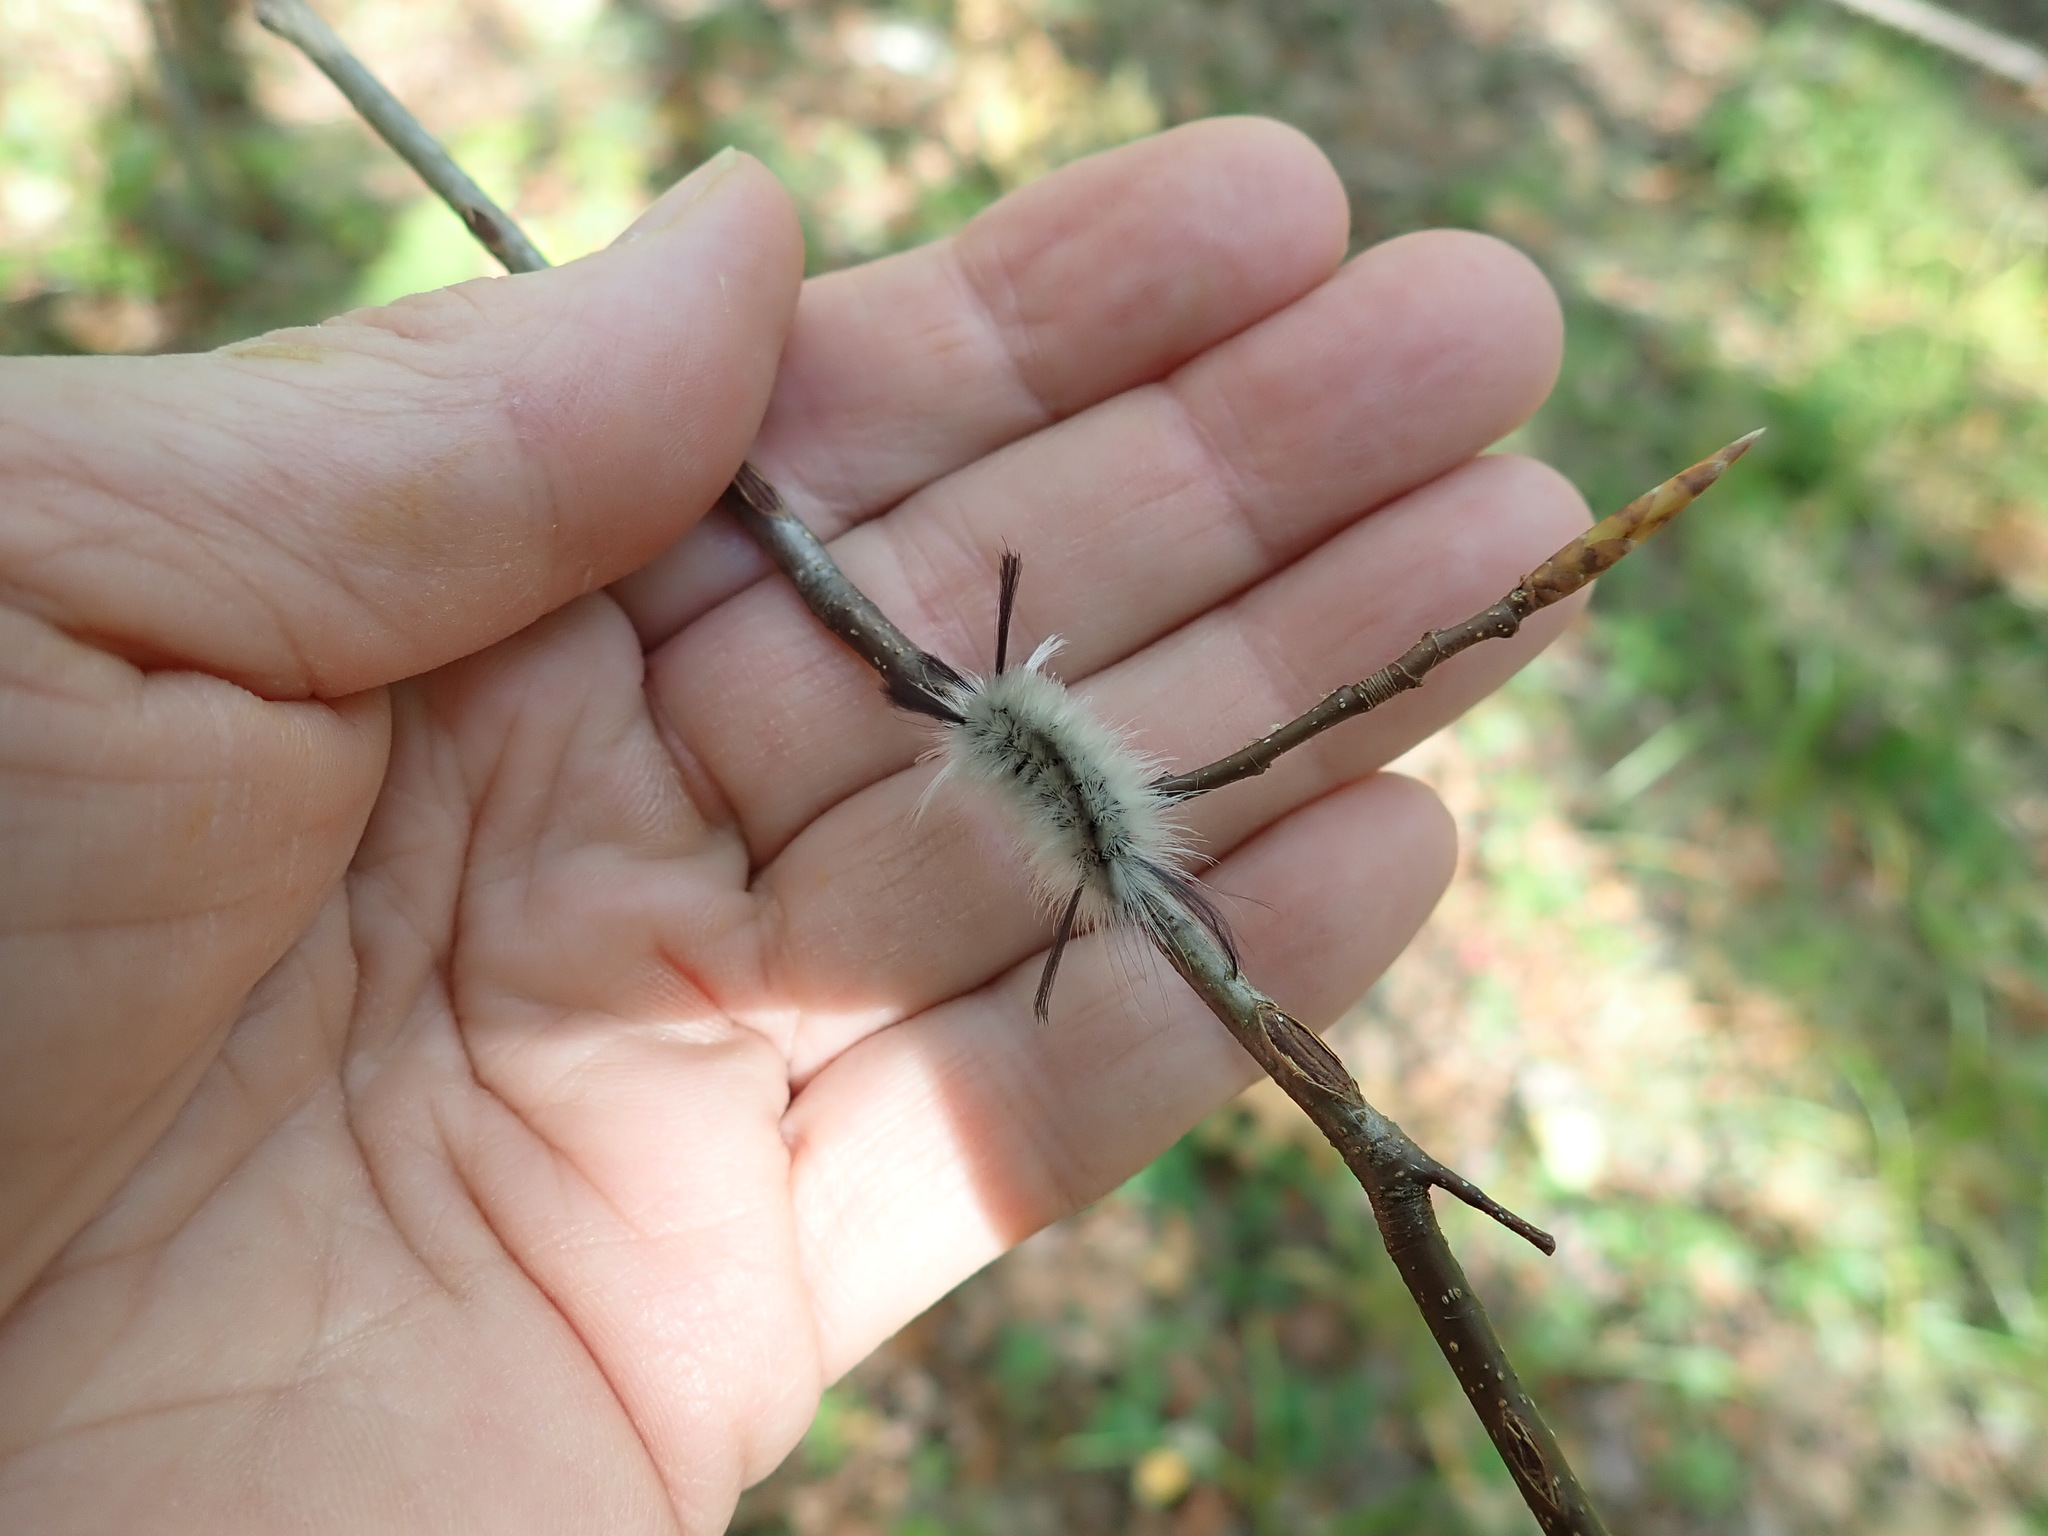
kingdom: Animalia
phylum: Arthropoda
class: Insecta
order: Lepidoptera
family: Erebidae
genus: Halysidota
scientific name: Halysidota tessellaris
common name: Banded tussock moth
